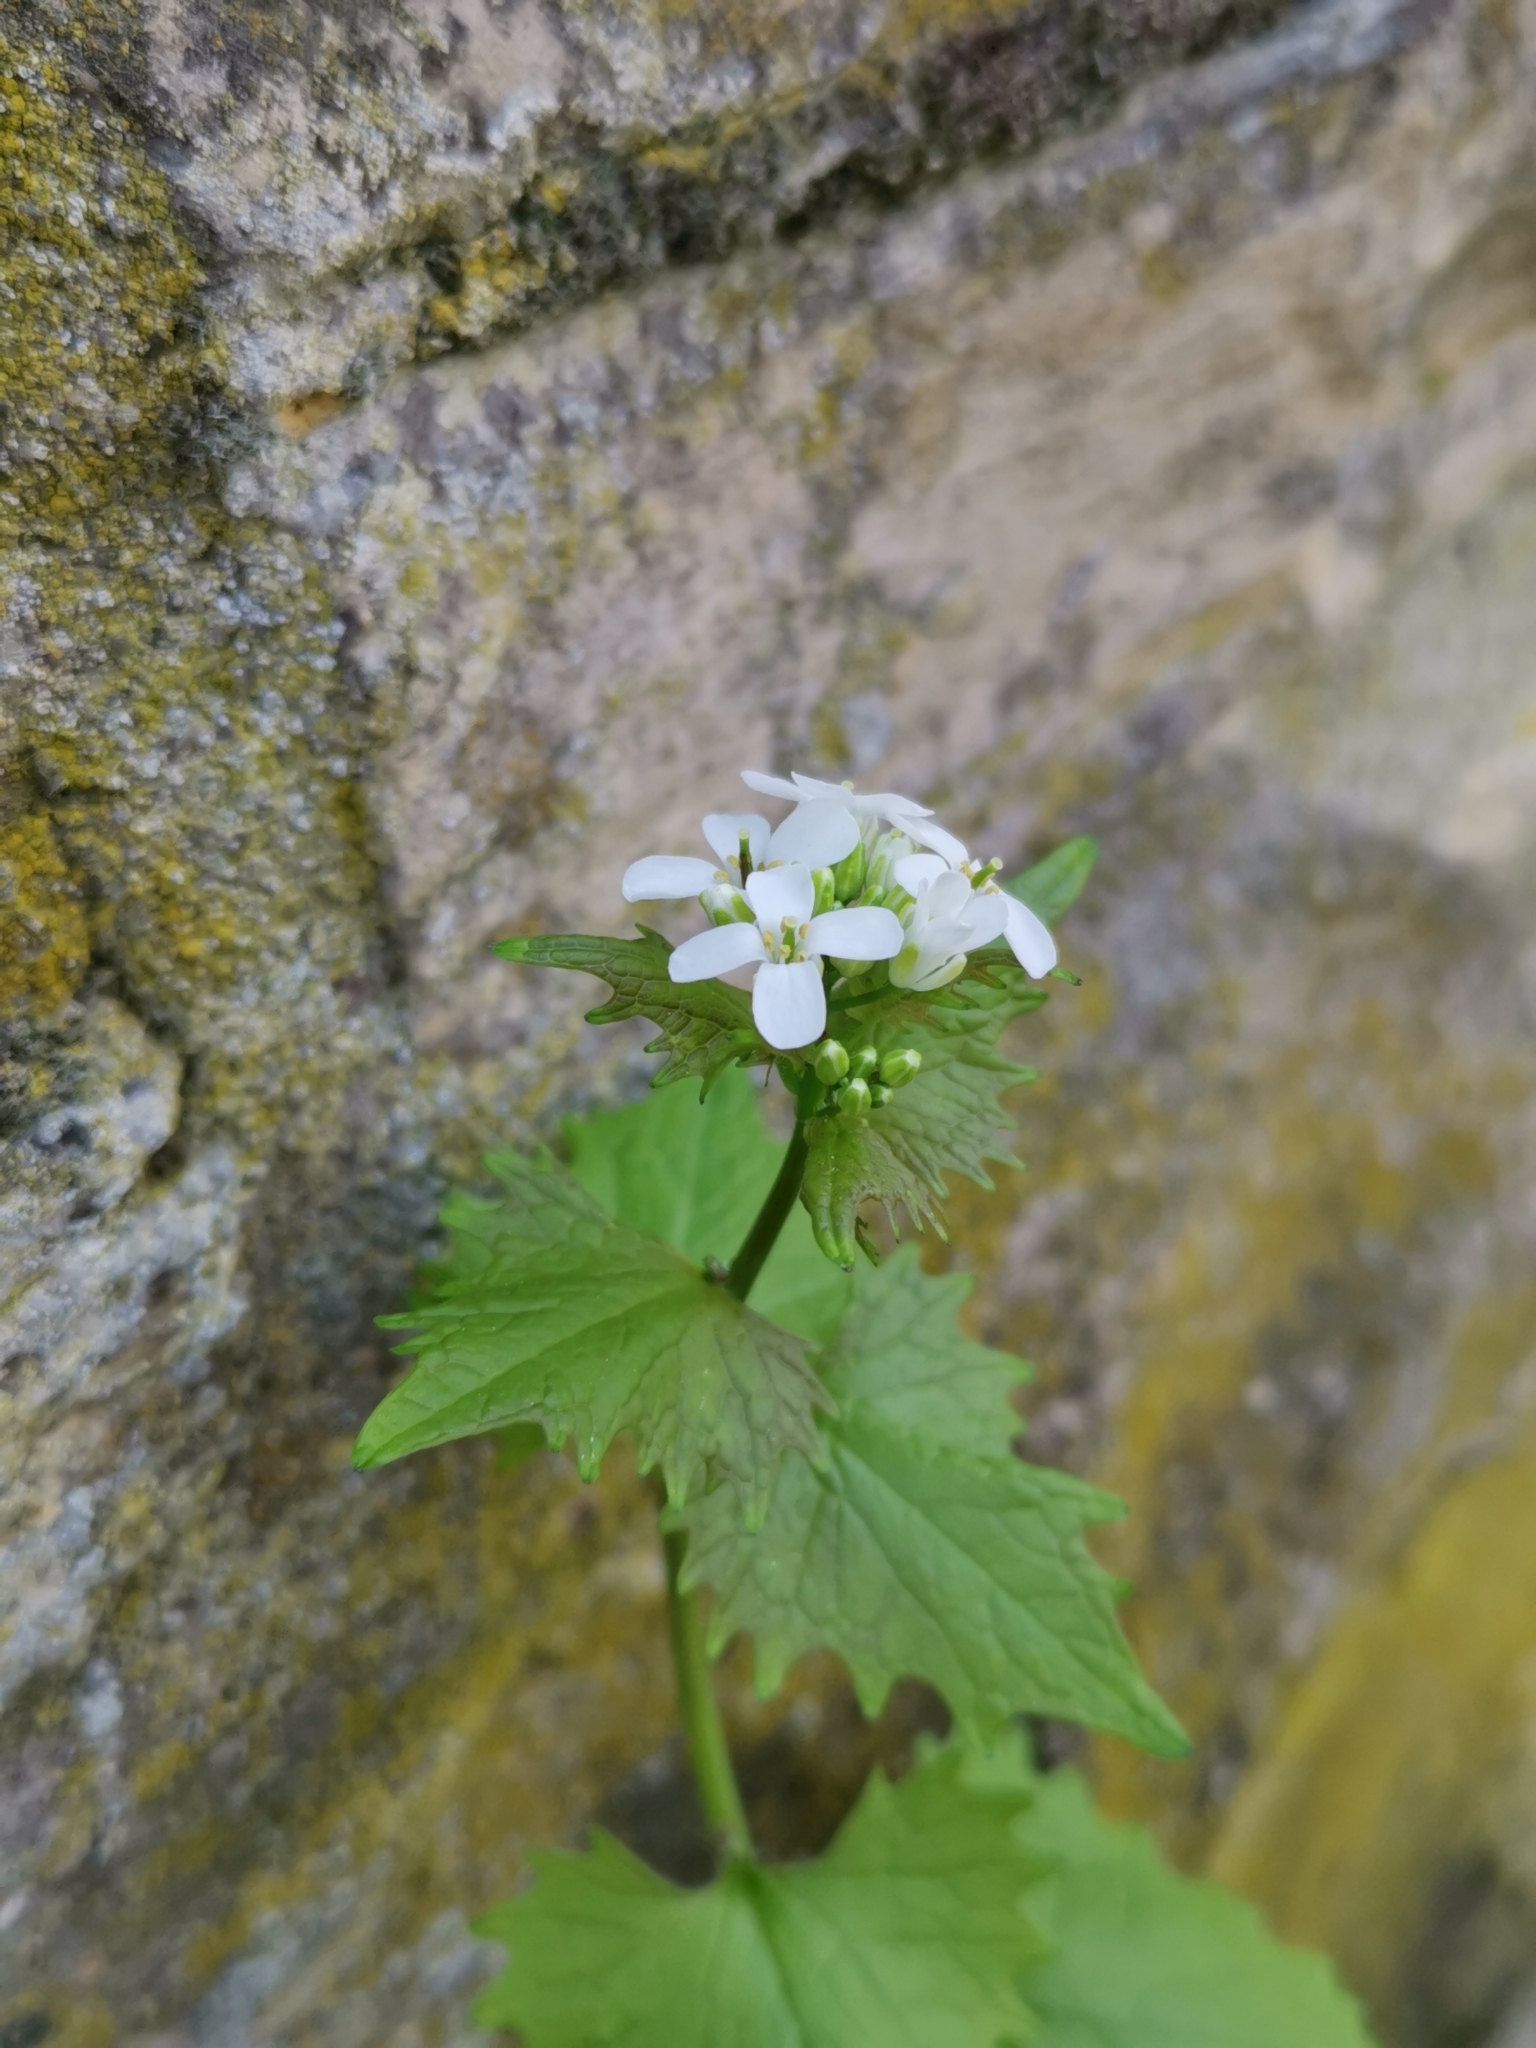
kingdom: Plantae
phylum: Tracheophyta
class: Magnoliopsida
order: Brassicales
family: Brassicaceae
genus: Alliaria
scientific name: Alliaria petiolata
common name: Garlic mustard
